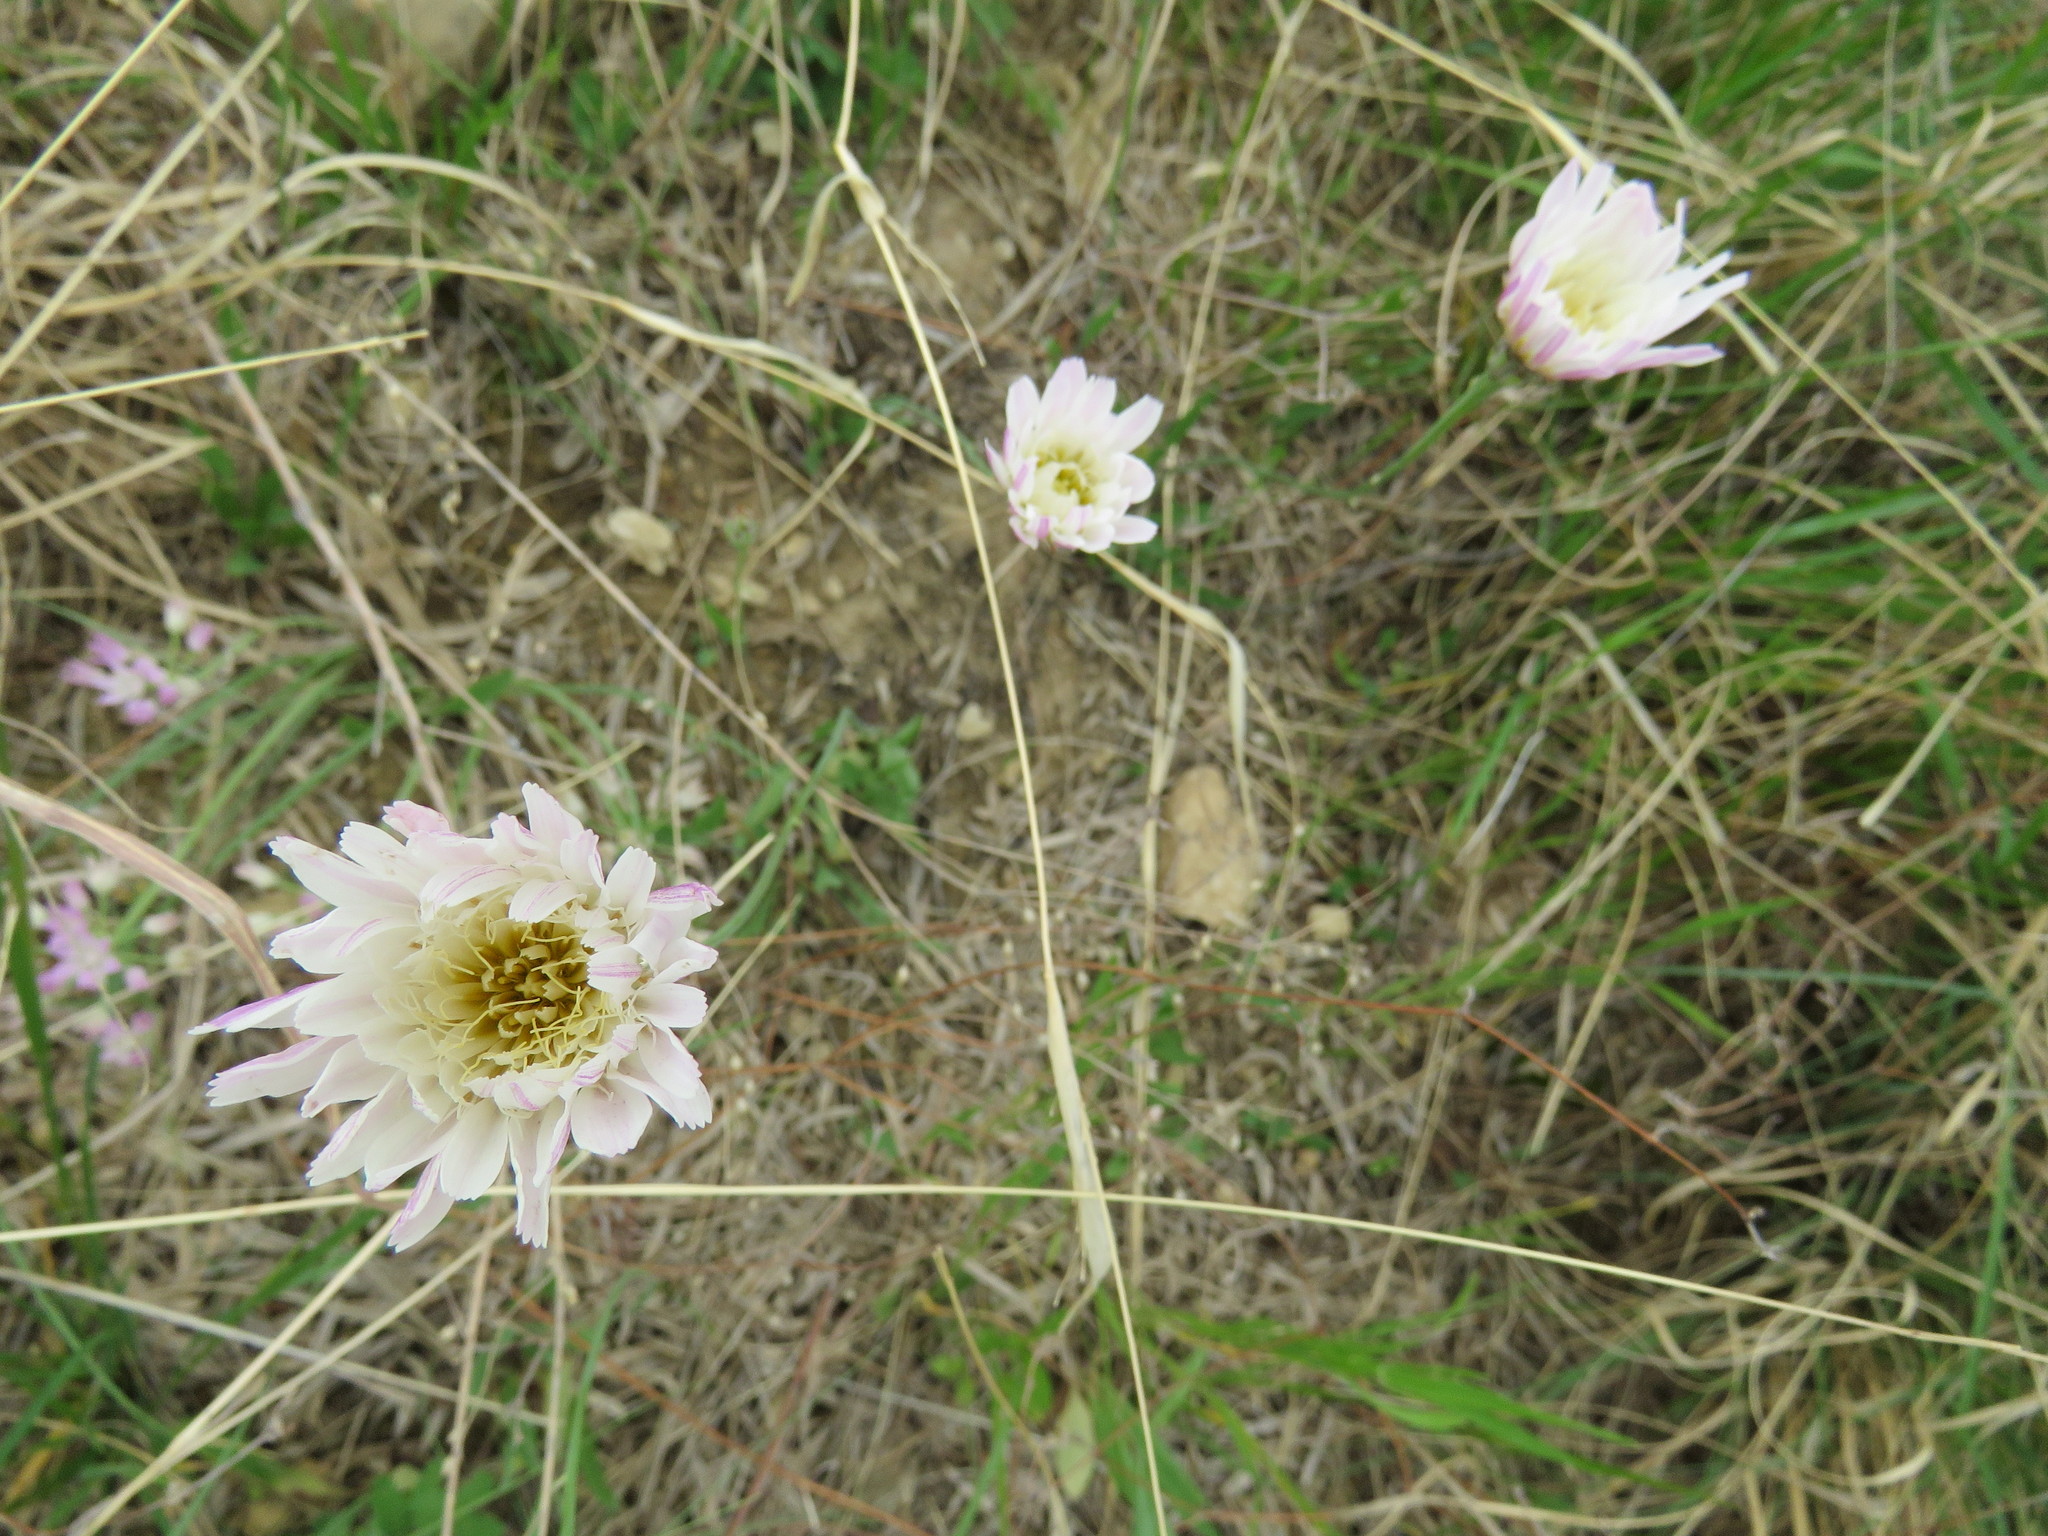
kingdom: Plantae
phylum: Tracheophyta
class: Magnoliopsida
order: Asterales
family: Asteraceae
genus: Pinaropappus
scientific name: Pinaropappus roseus
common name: Rock-lettuce
